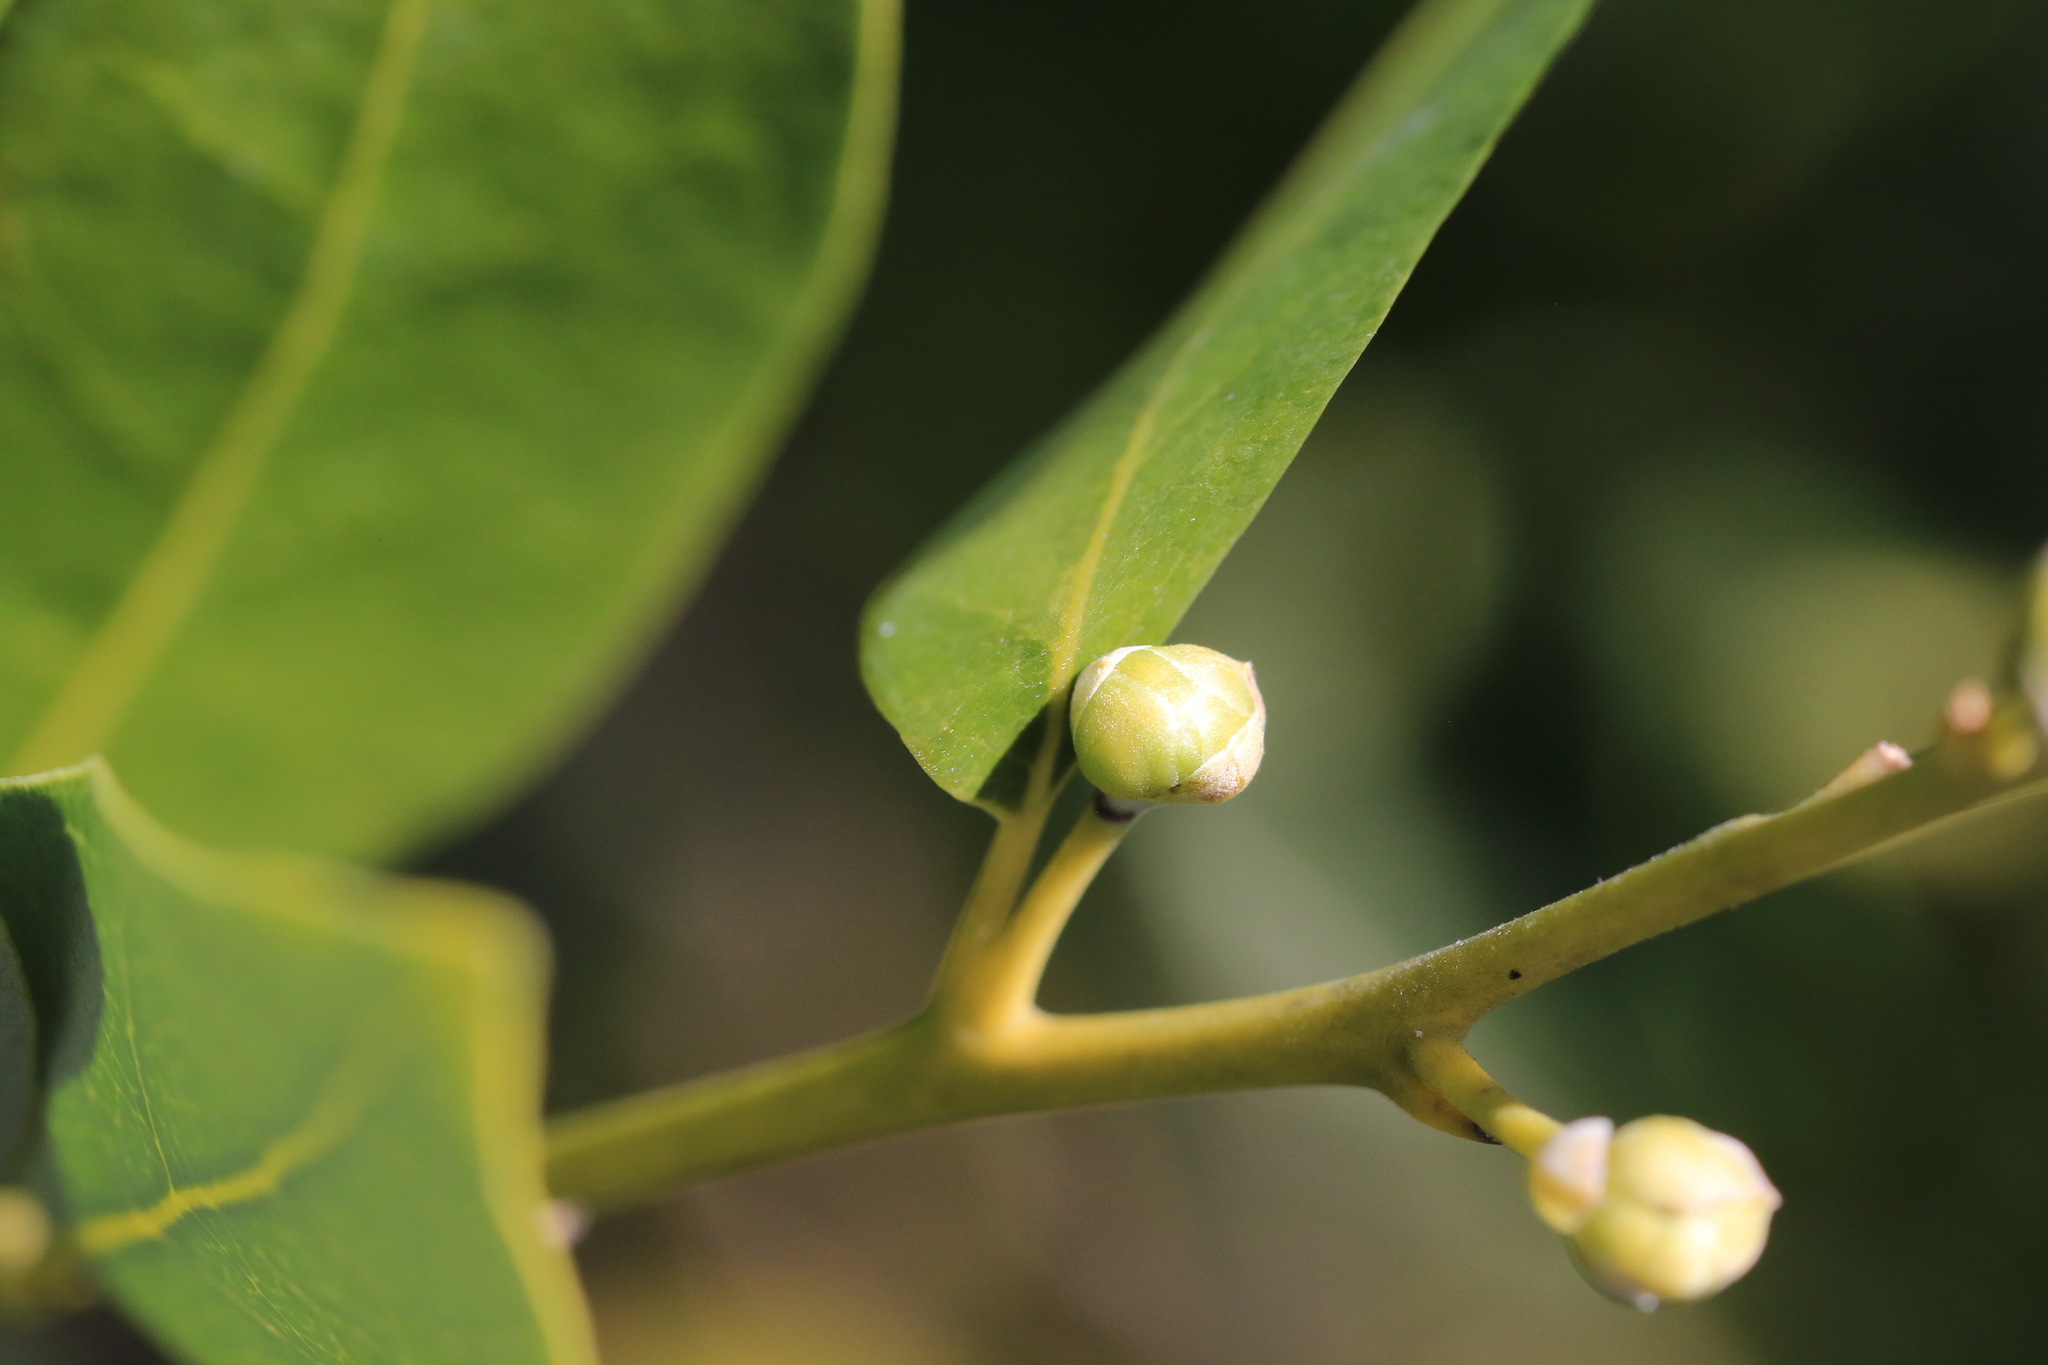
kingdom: Plantae
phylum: Tracheophyta
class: Magnoliopsida
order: Laurales
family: Lauraceae
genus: Umbellularia
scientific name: Umbellularia californica
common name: California bay
